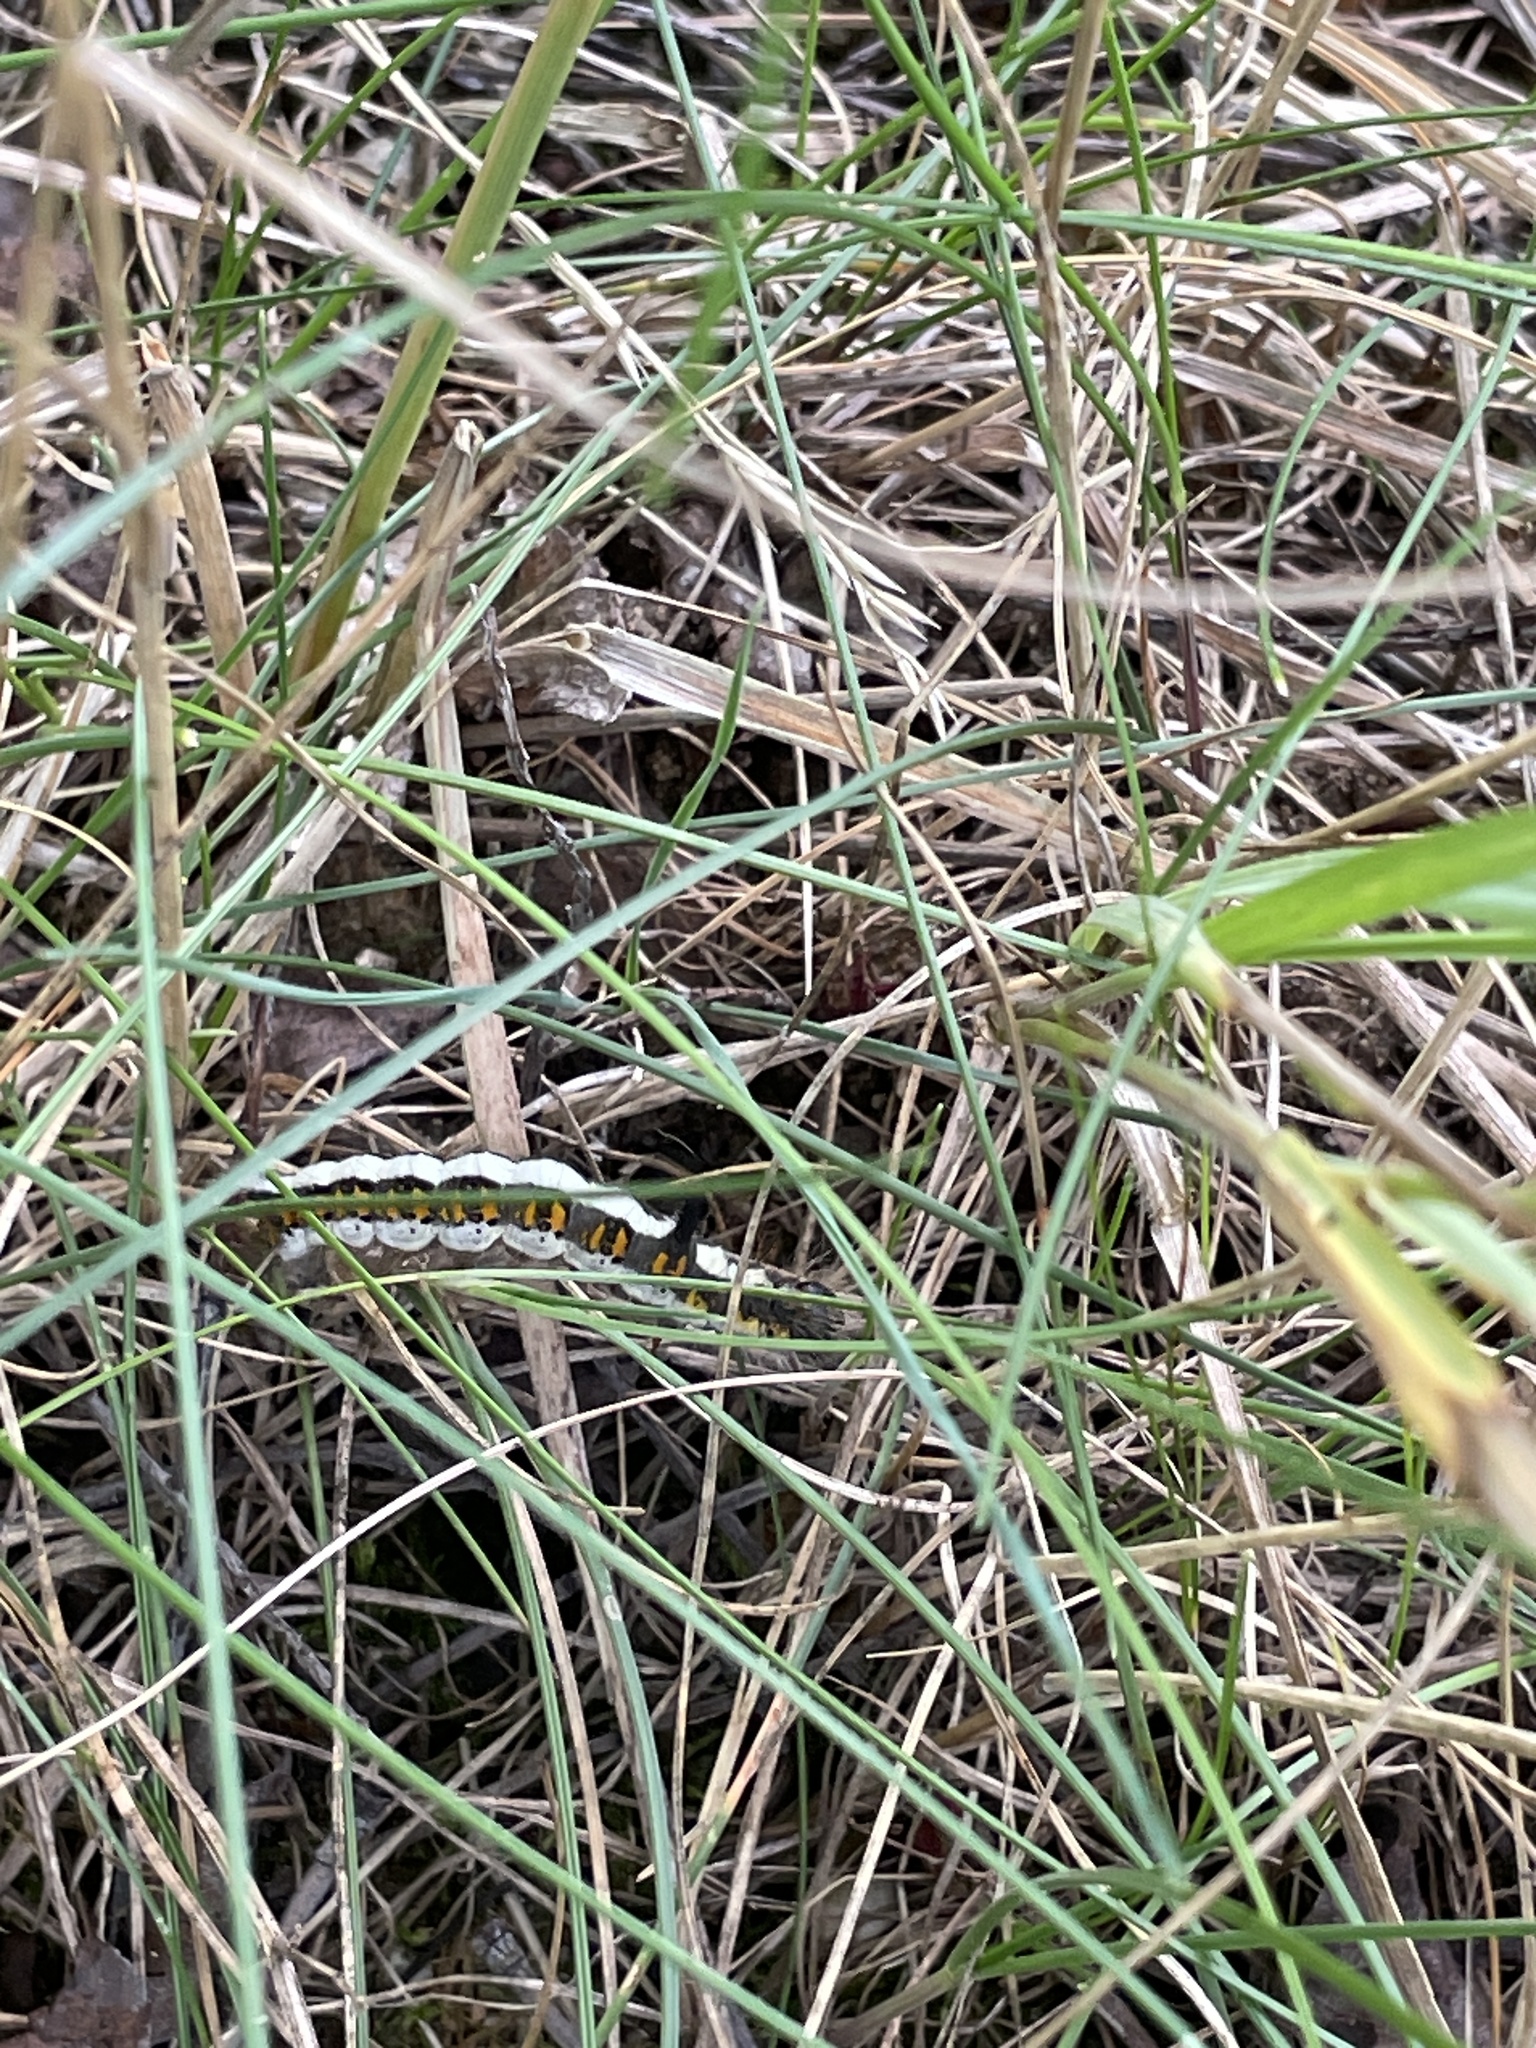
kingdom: Animalia
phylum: Arthropoda
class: Insecta
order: Lepidoptera
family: Noctuidae
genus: Acronicta
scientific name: Acronicta psi
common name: Grey dagger
